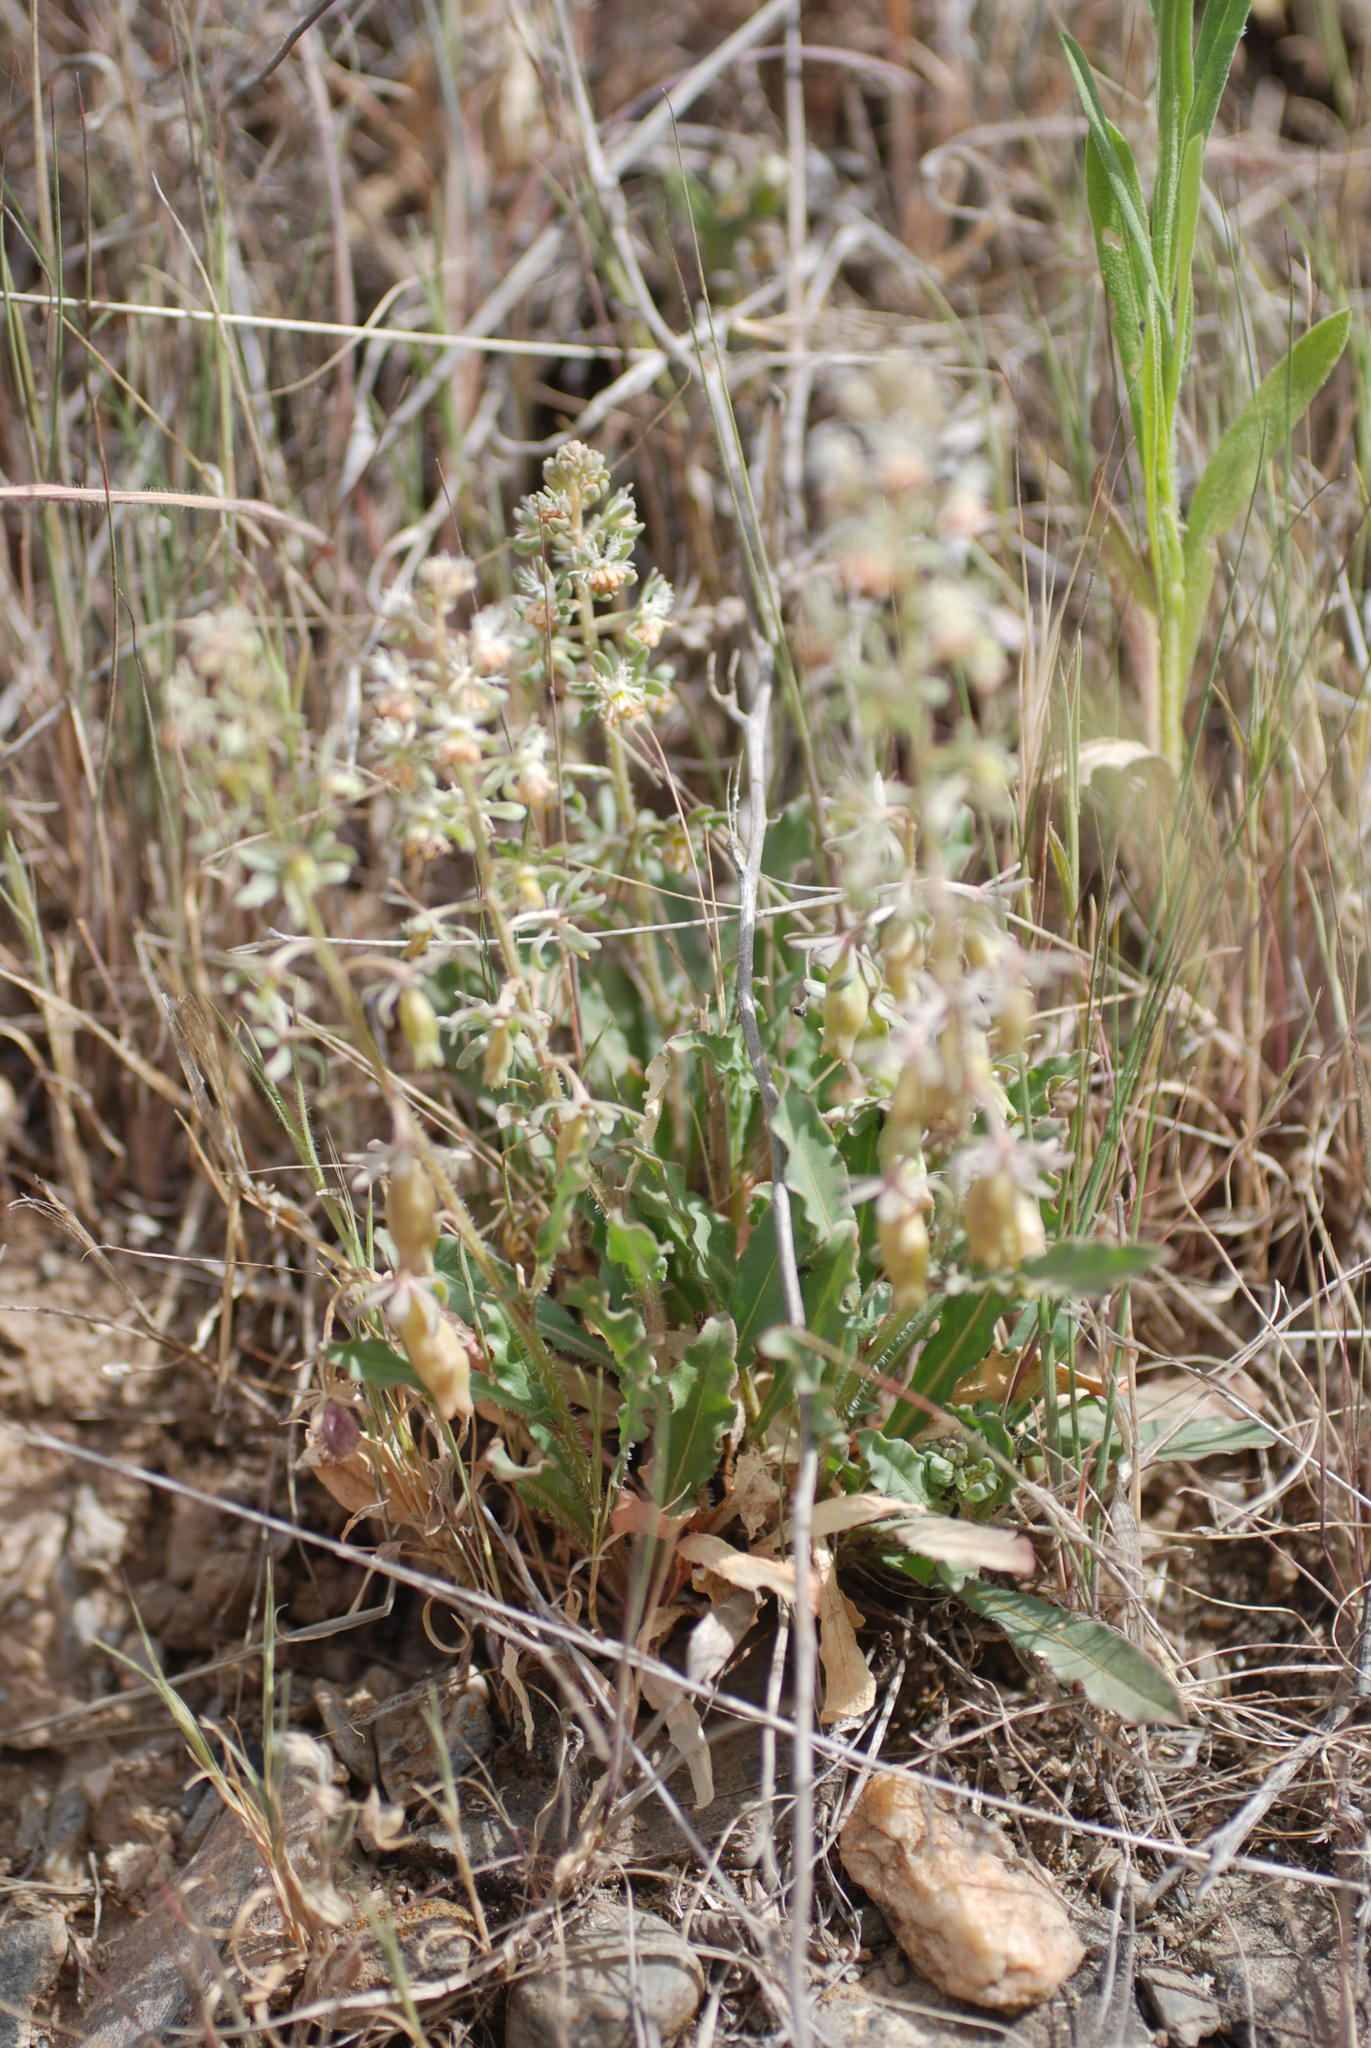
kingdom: Plantae
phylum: Tracheophyta
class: Magnoliopsida
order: Brassicales
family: Resedaceae
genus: Reseda
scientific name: Reseda phyteuma
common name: Corn mignonette
